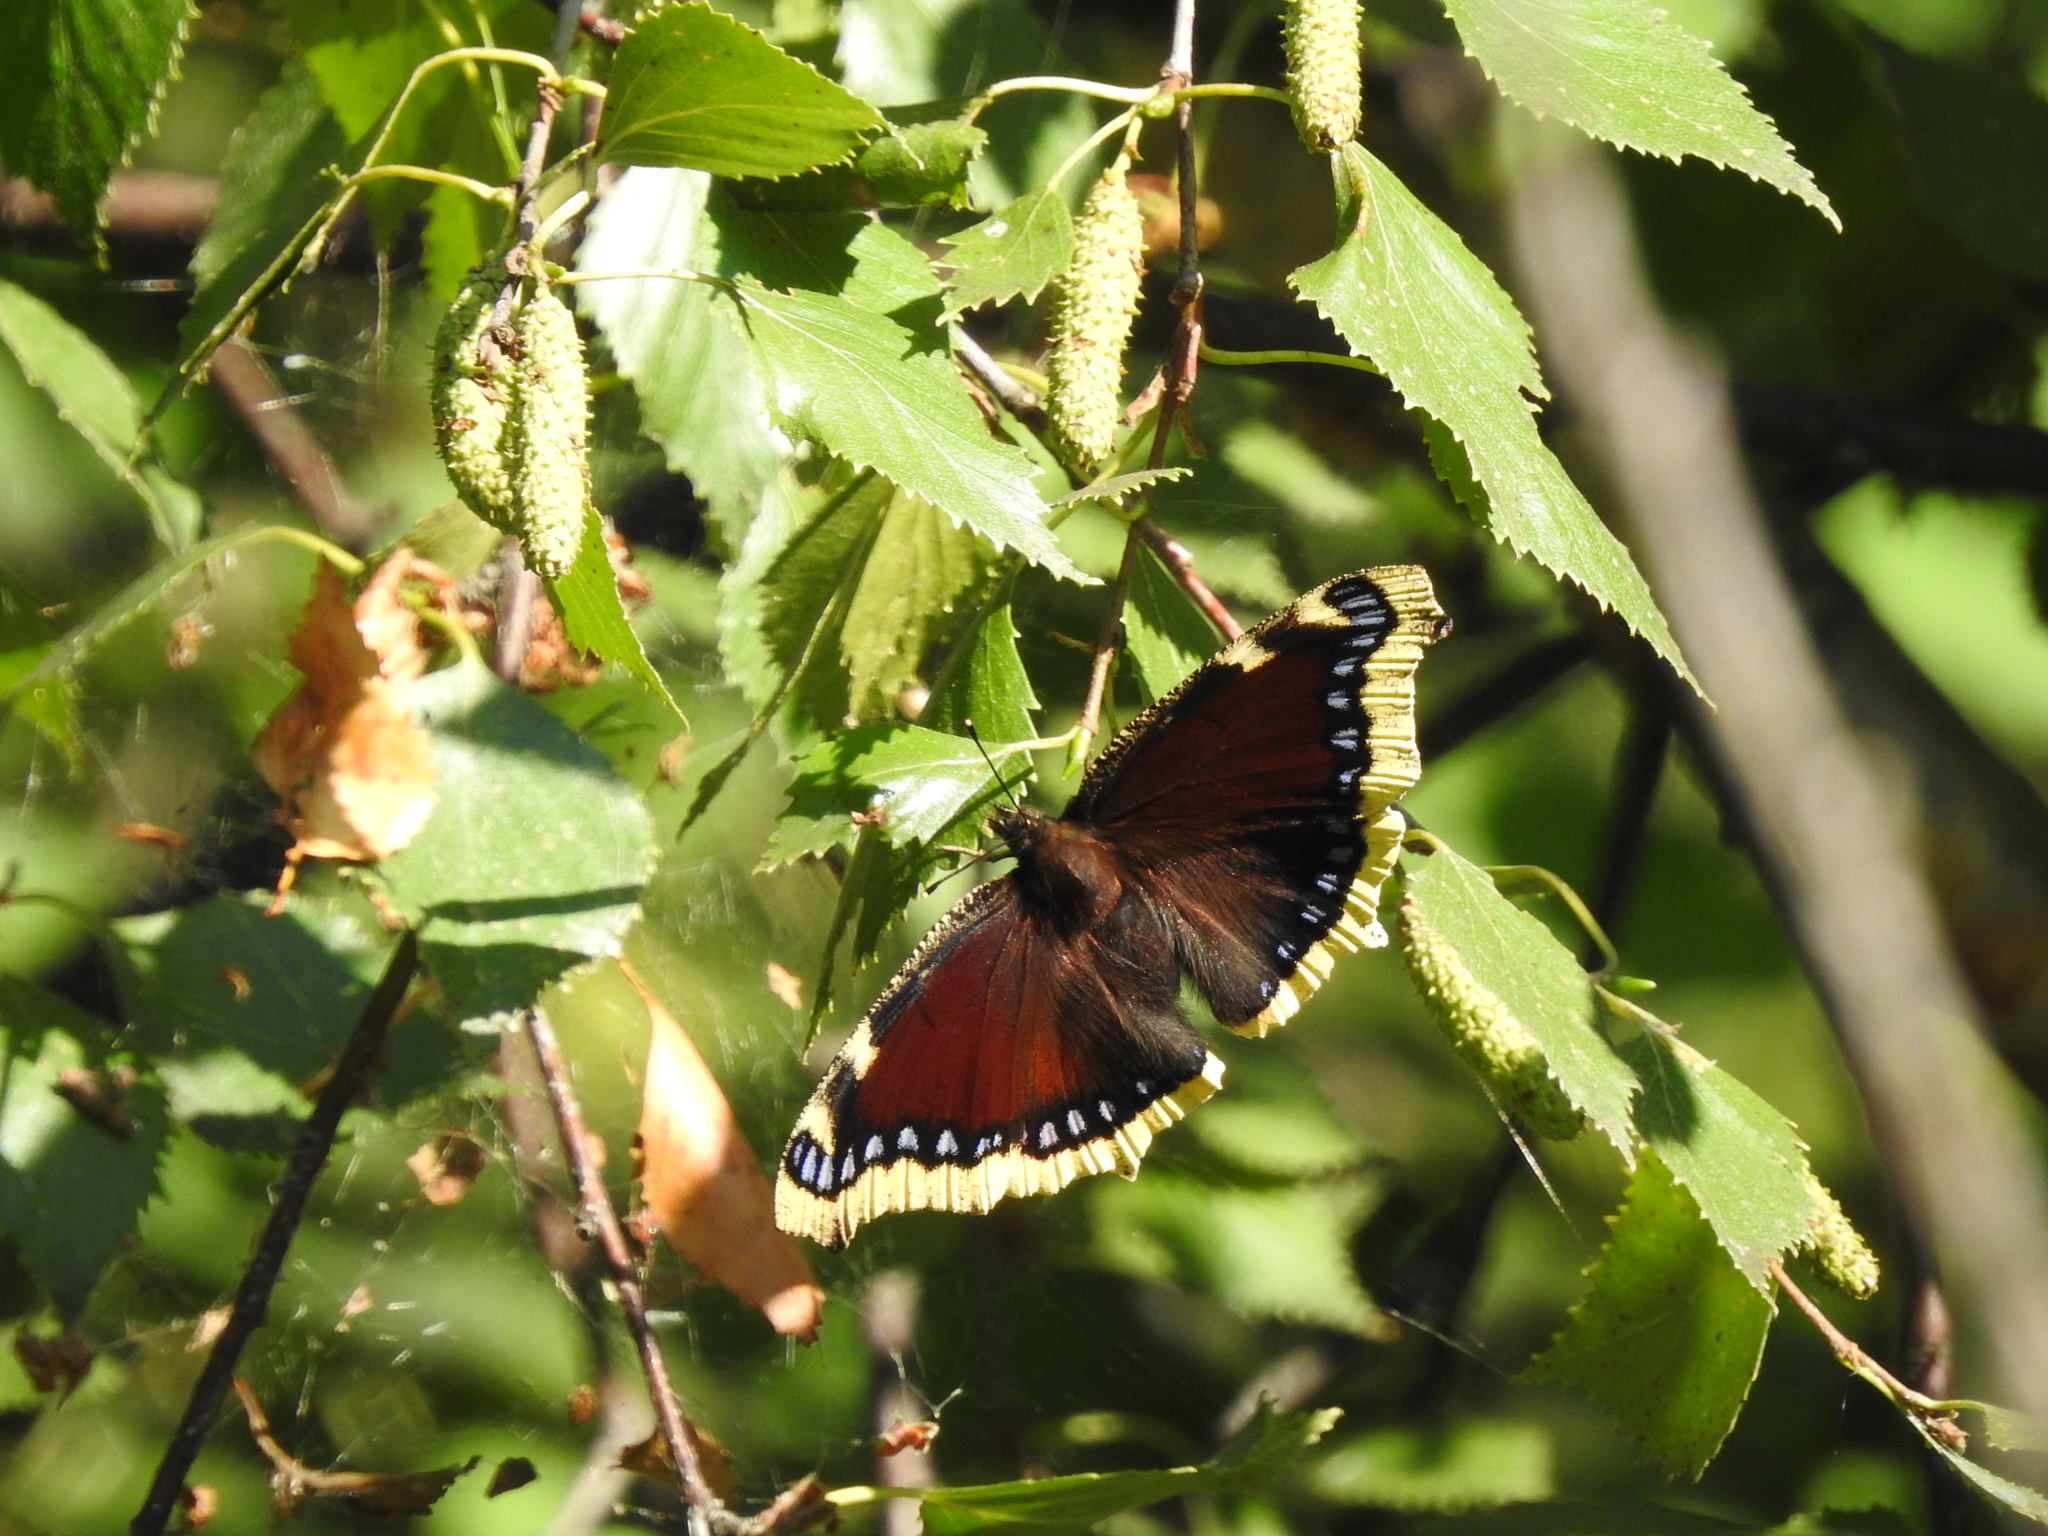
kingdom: Animalia
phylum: Arthropoda
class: Insecta
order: Lepidoptera
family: Nymphalidae
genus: Nymphalis
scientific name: Nymphalis antiopa
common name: Camberwell beauty
